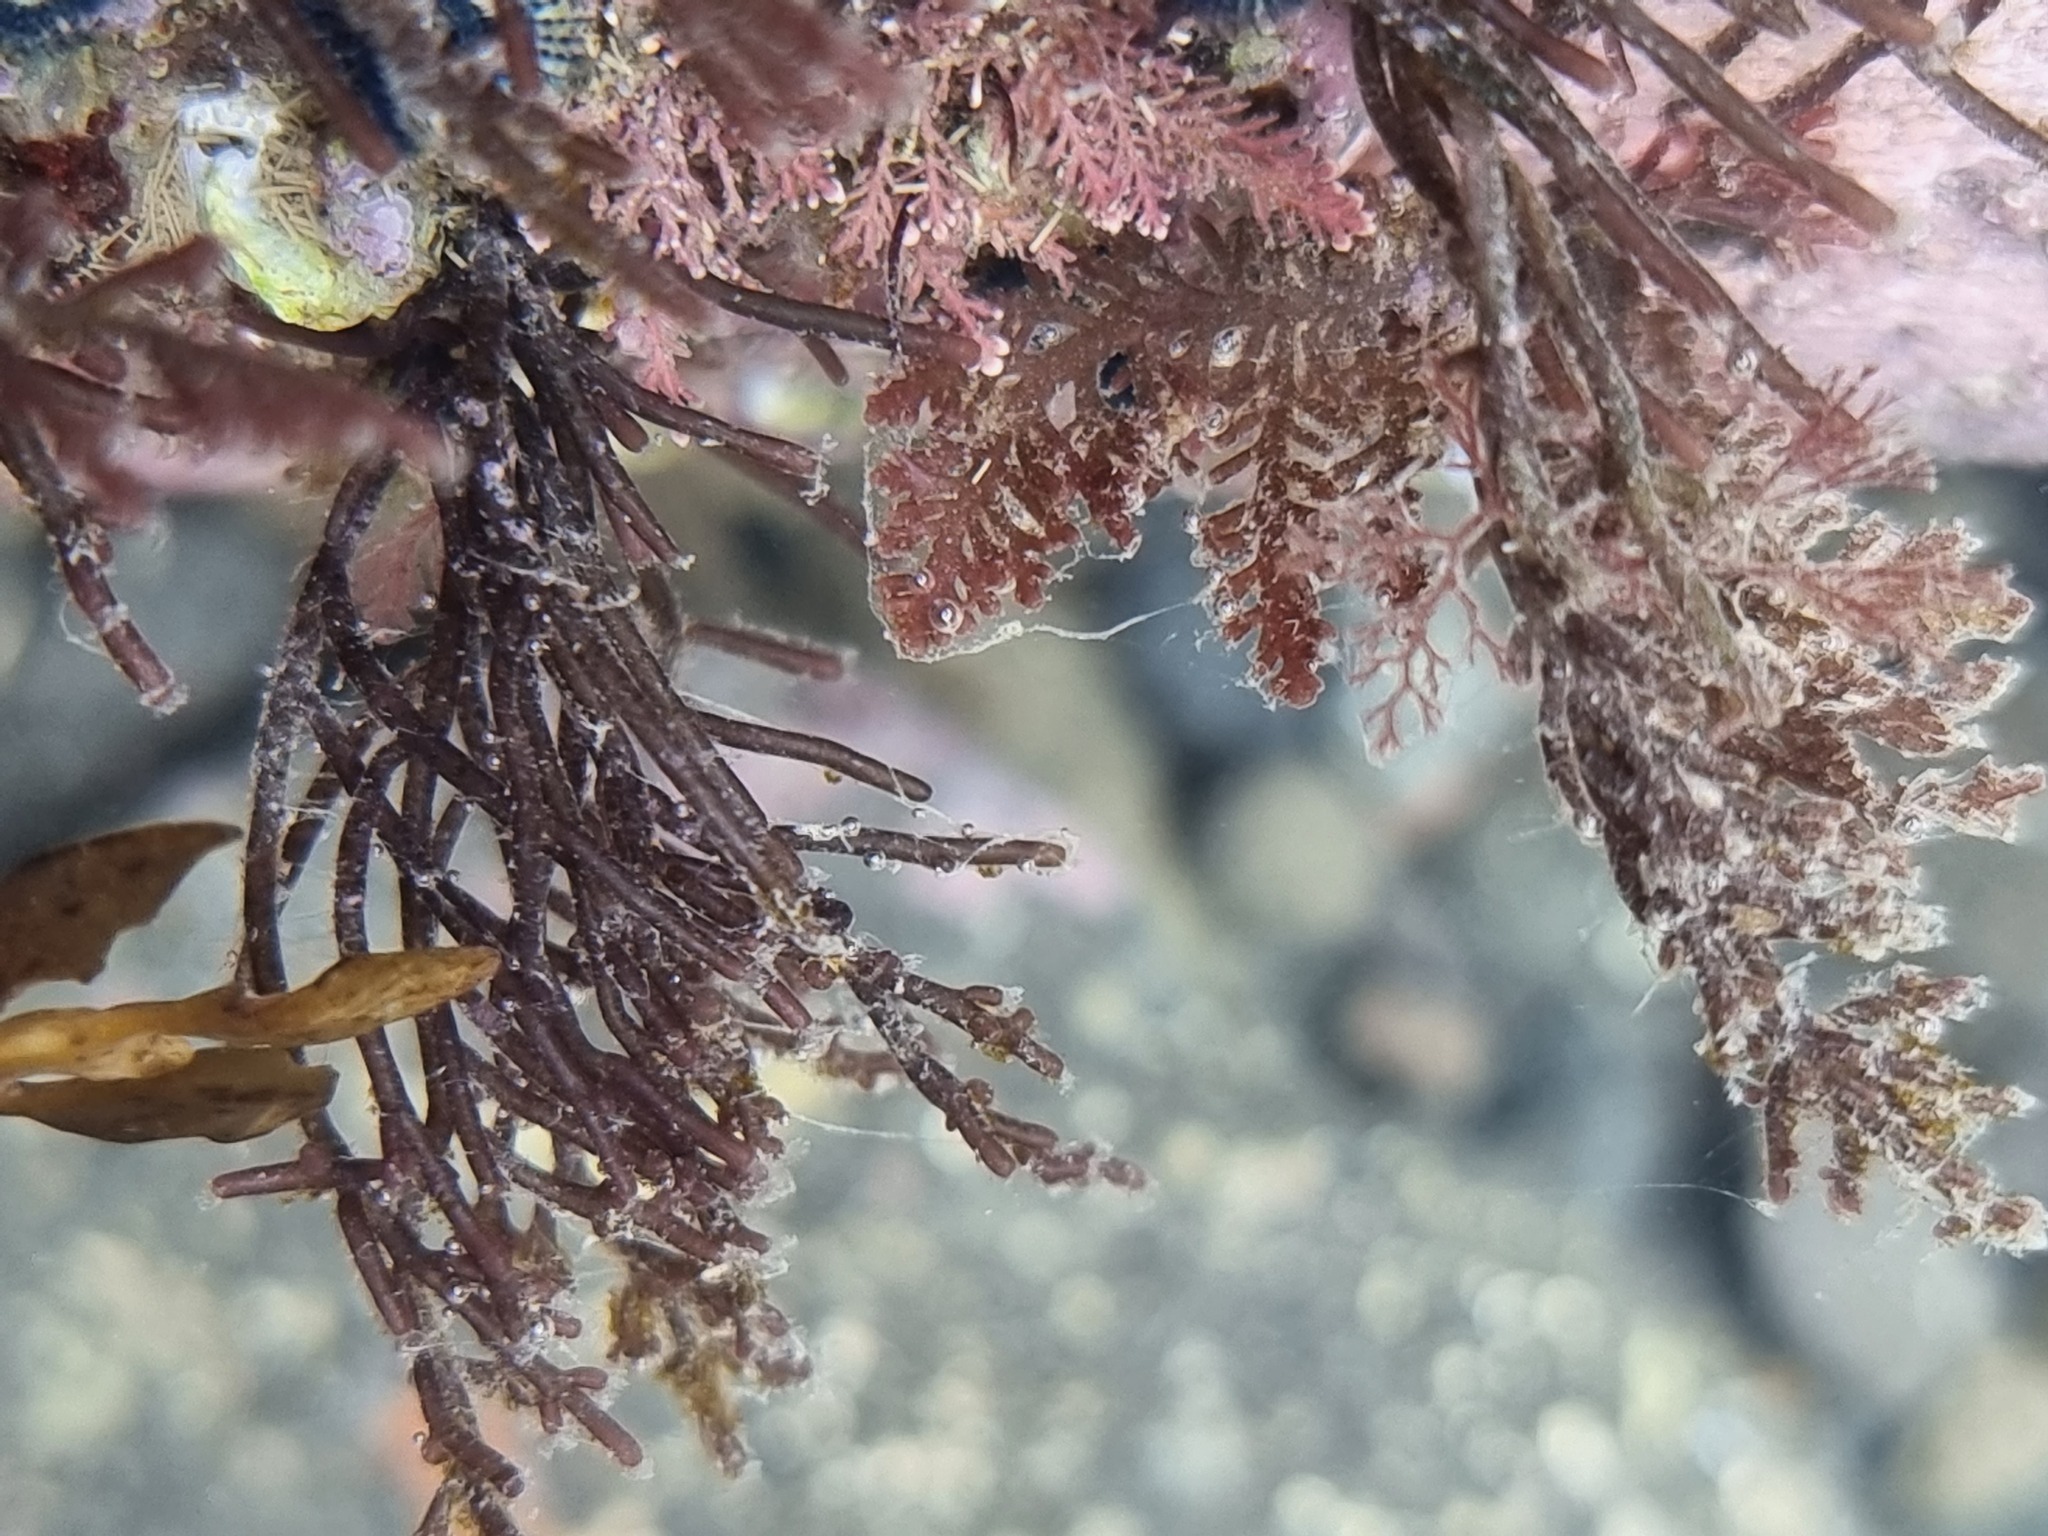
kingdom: Plantae
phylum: Rhodophyta
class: Florideophyceae
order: Ceramiales
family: Rhodomelaceae
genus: Chondria
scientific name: Chondria macrocarpa
